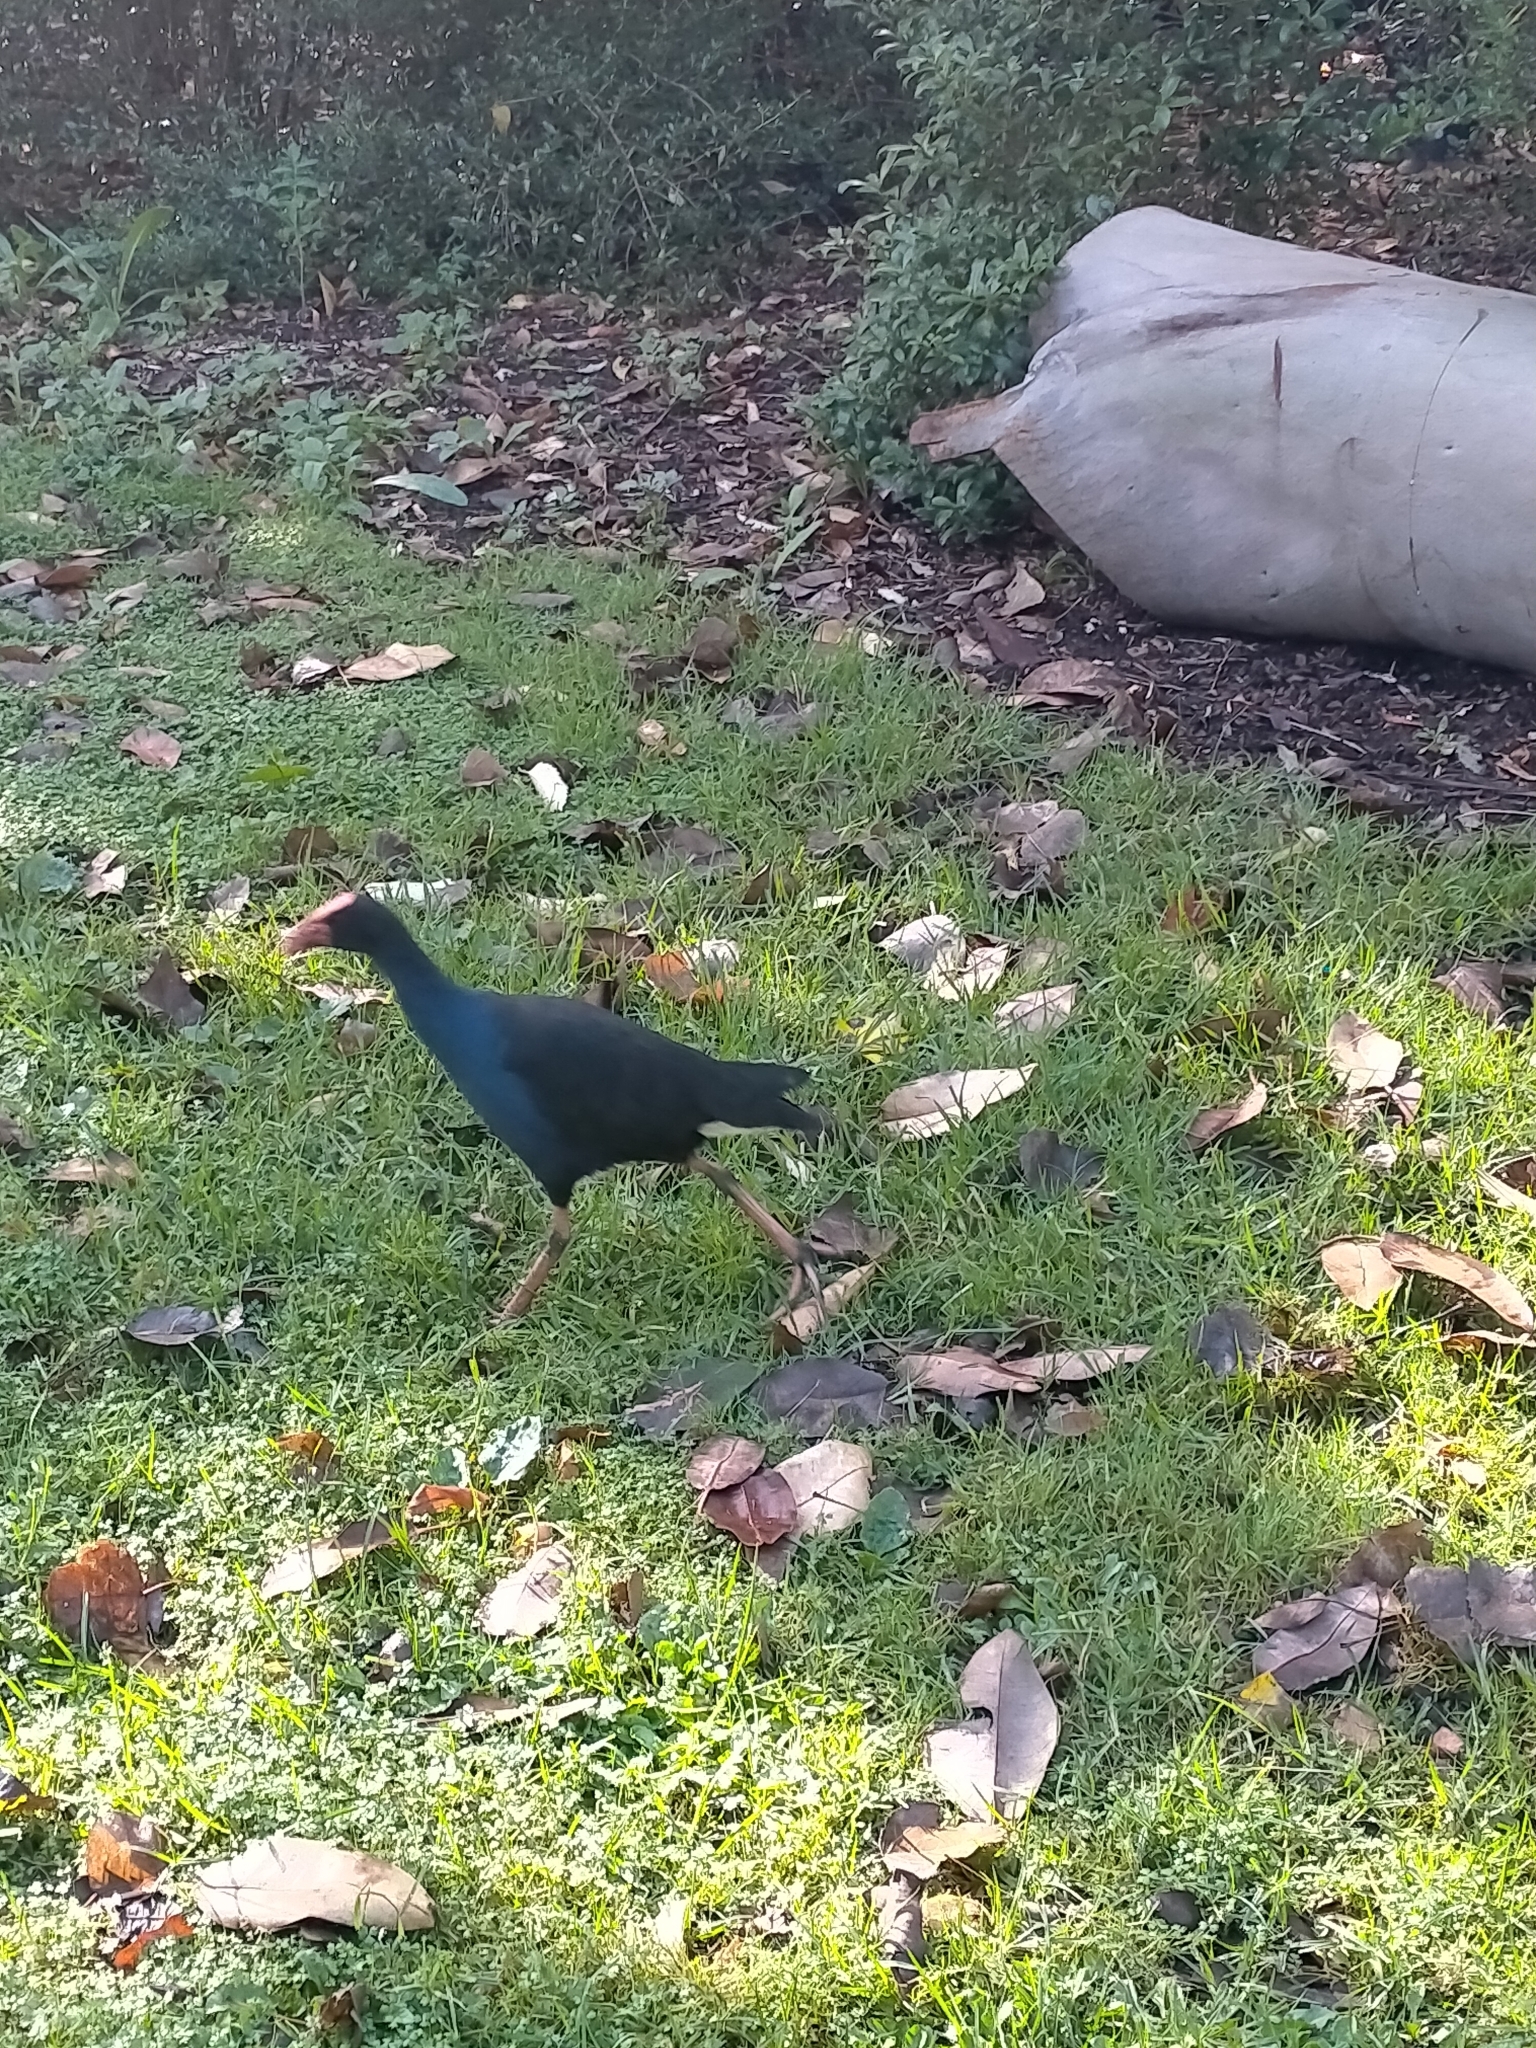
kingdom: Animalia
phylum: Chordata
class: Aves
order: Gruiformes
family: Rallidae
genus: Porphyrio
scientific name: Porphyrio melanotus
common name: Australasian swamphen
